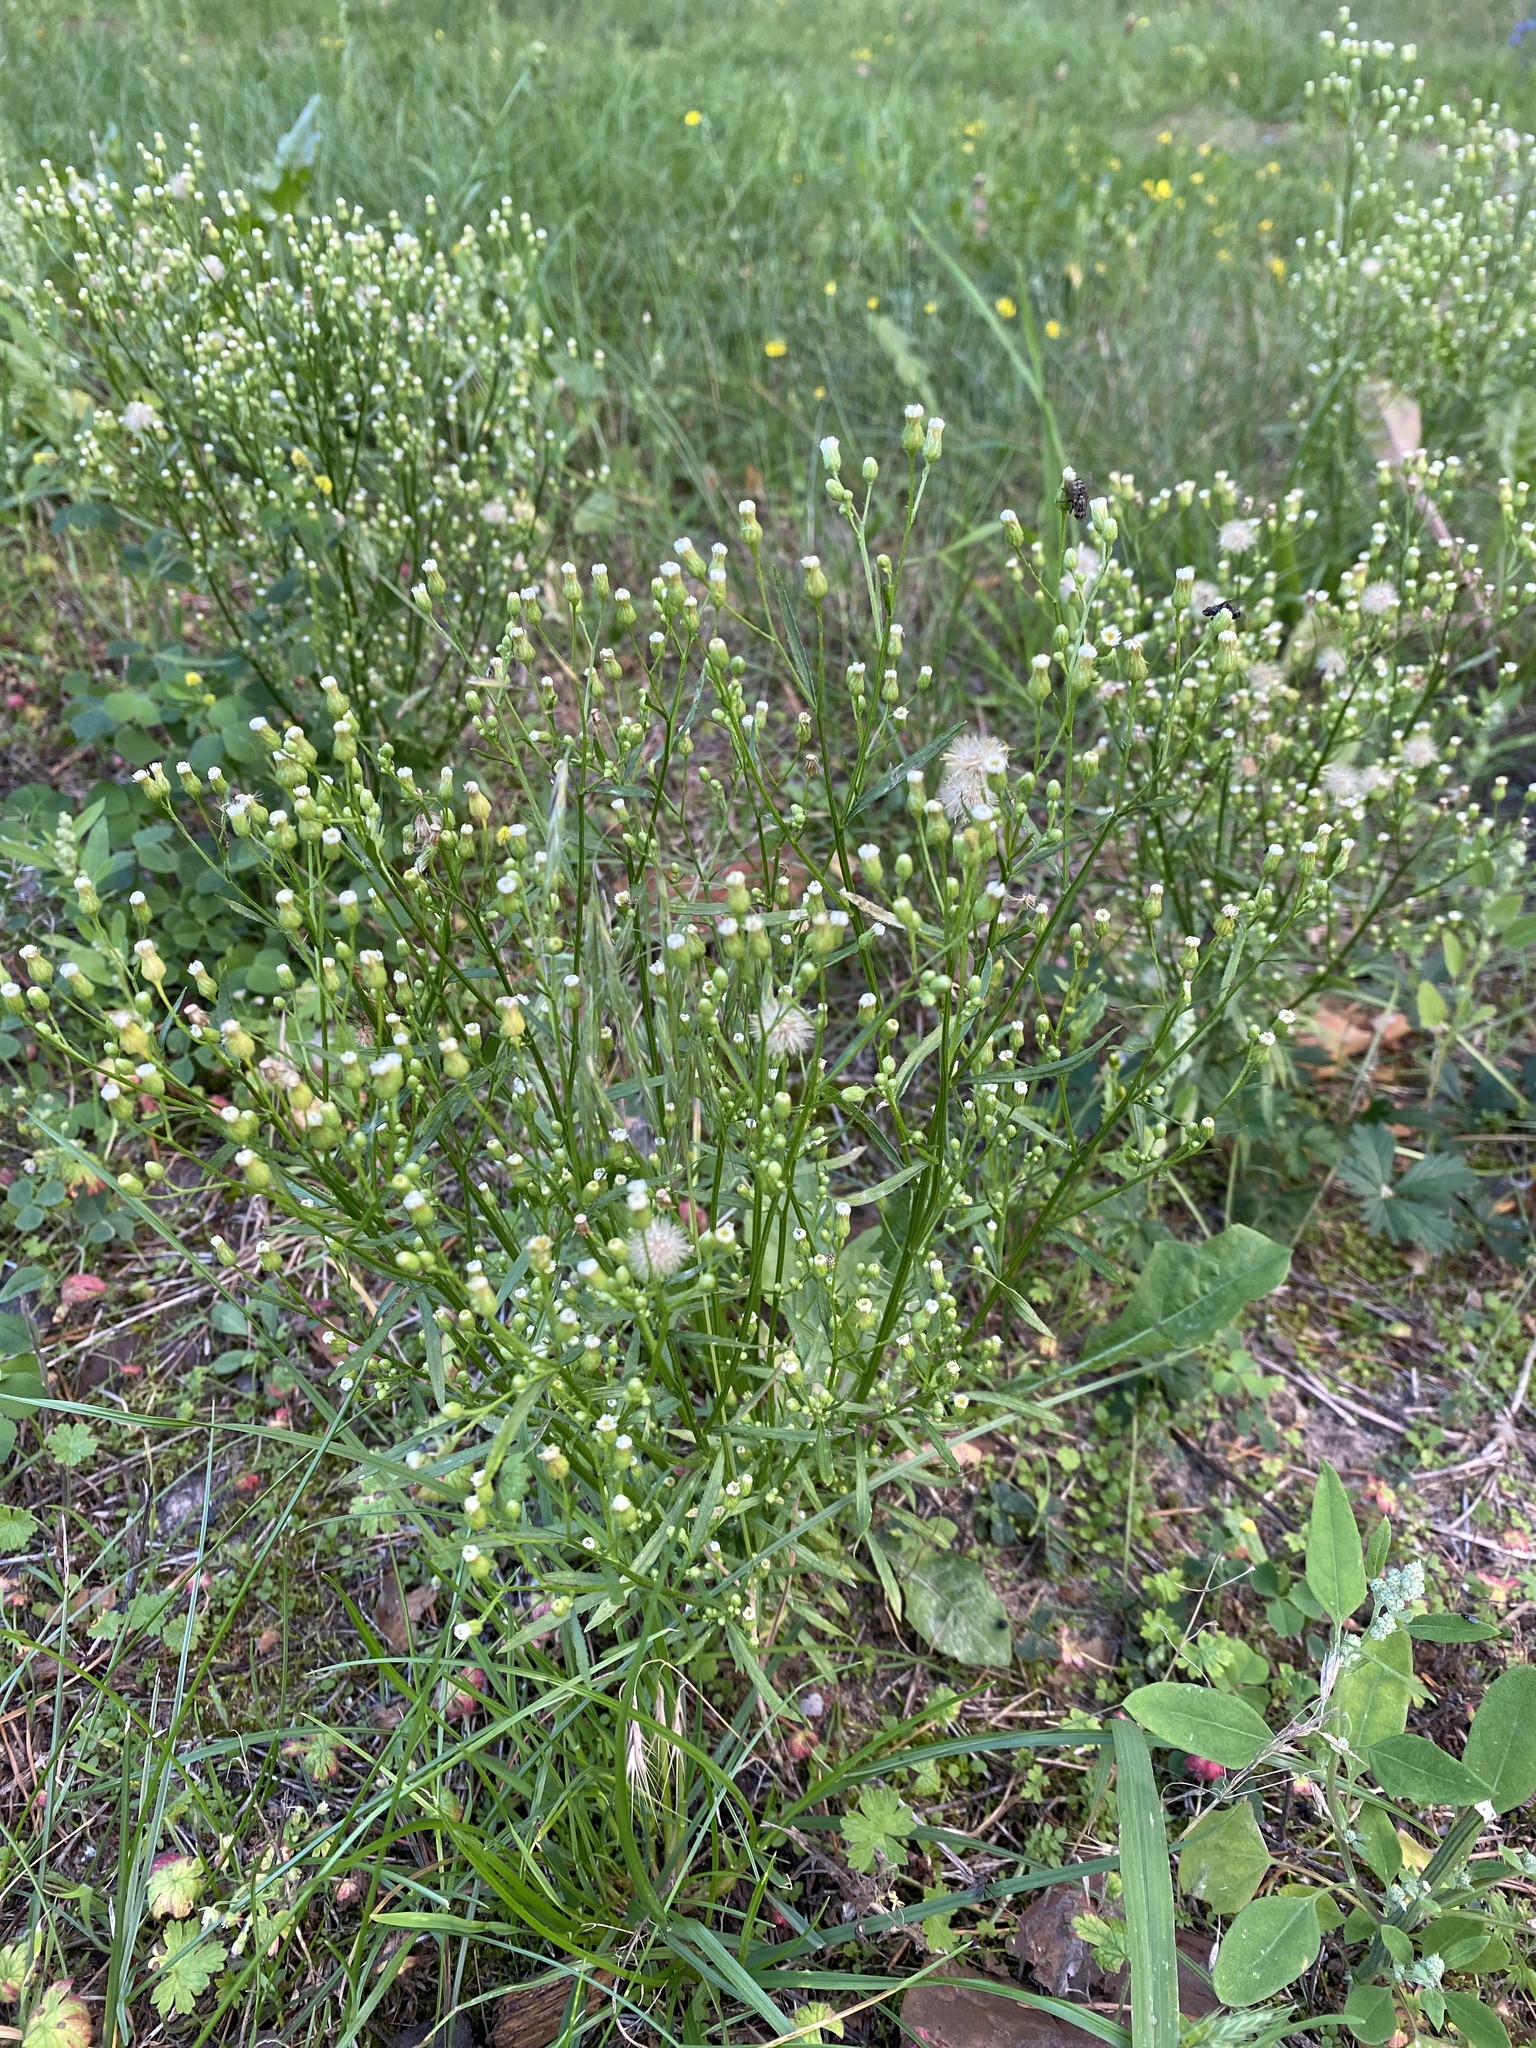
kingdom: Plantae
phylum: Tracheophyta
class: Magnoliopsida
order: Asterales
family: Asteraceae
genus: Erigeron
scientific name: Erigeron canadensis
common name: Canadian fleabane
